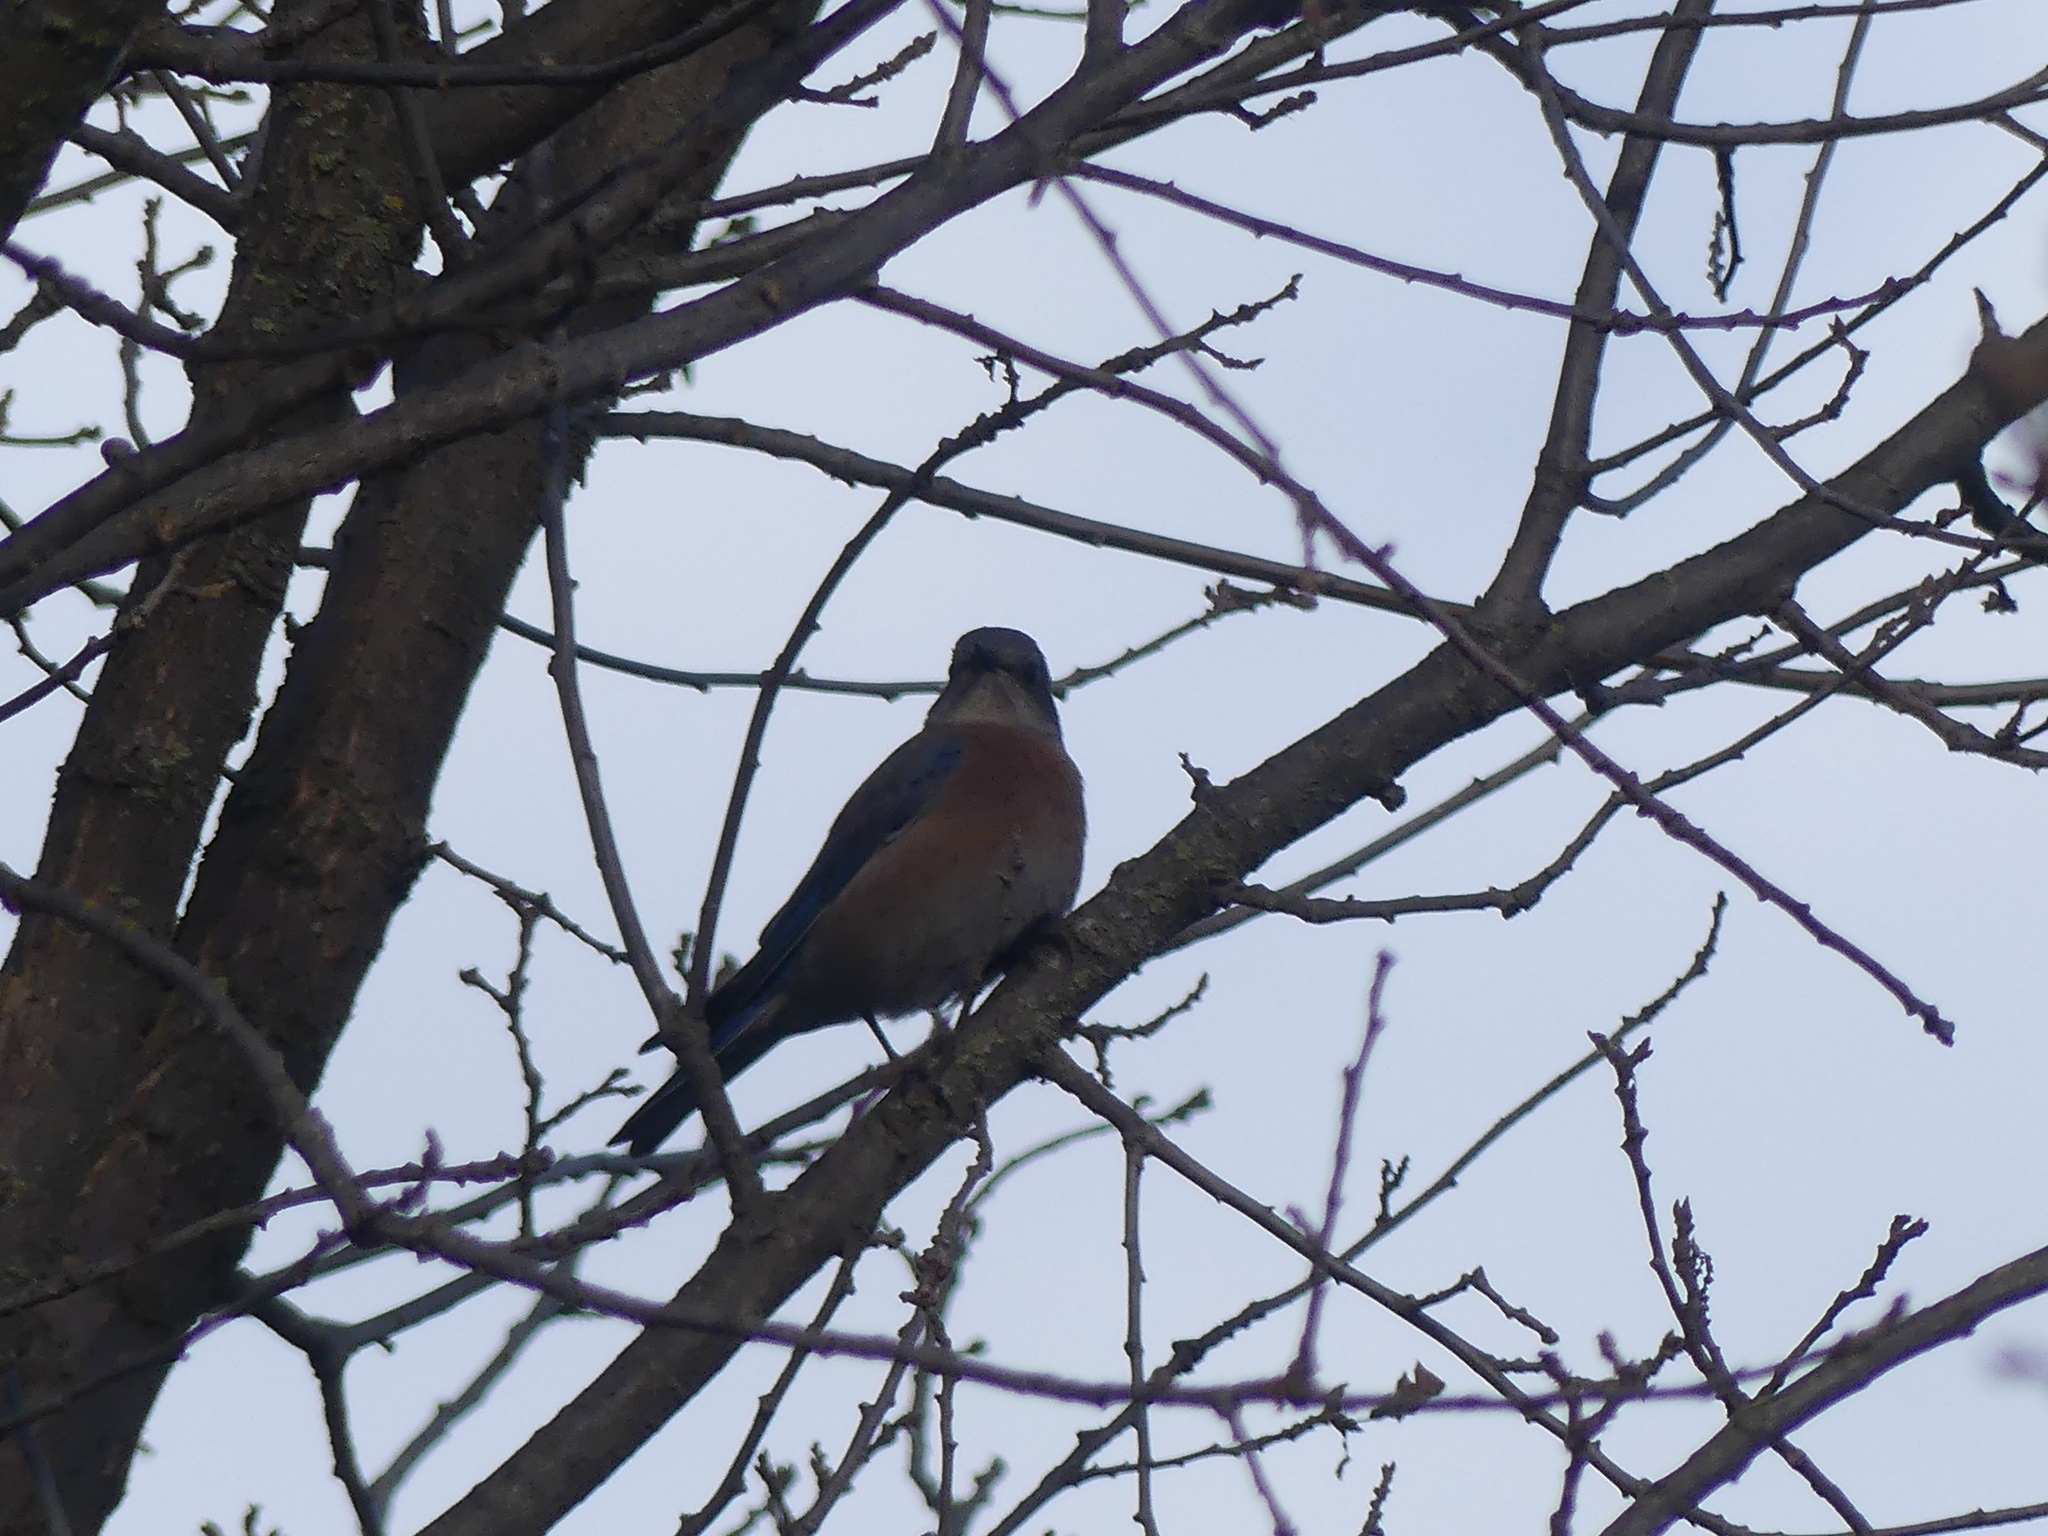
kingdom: Animalia
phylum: Chordata
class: Aves
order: Passeriformes
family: Turdidae
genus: Sialia
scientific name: Sialia mexicana
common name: Western bluebird
